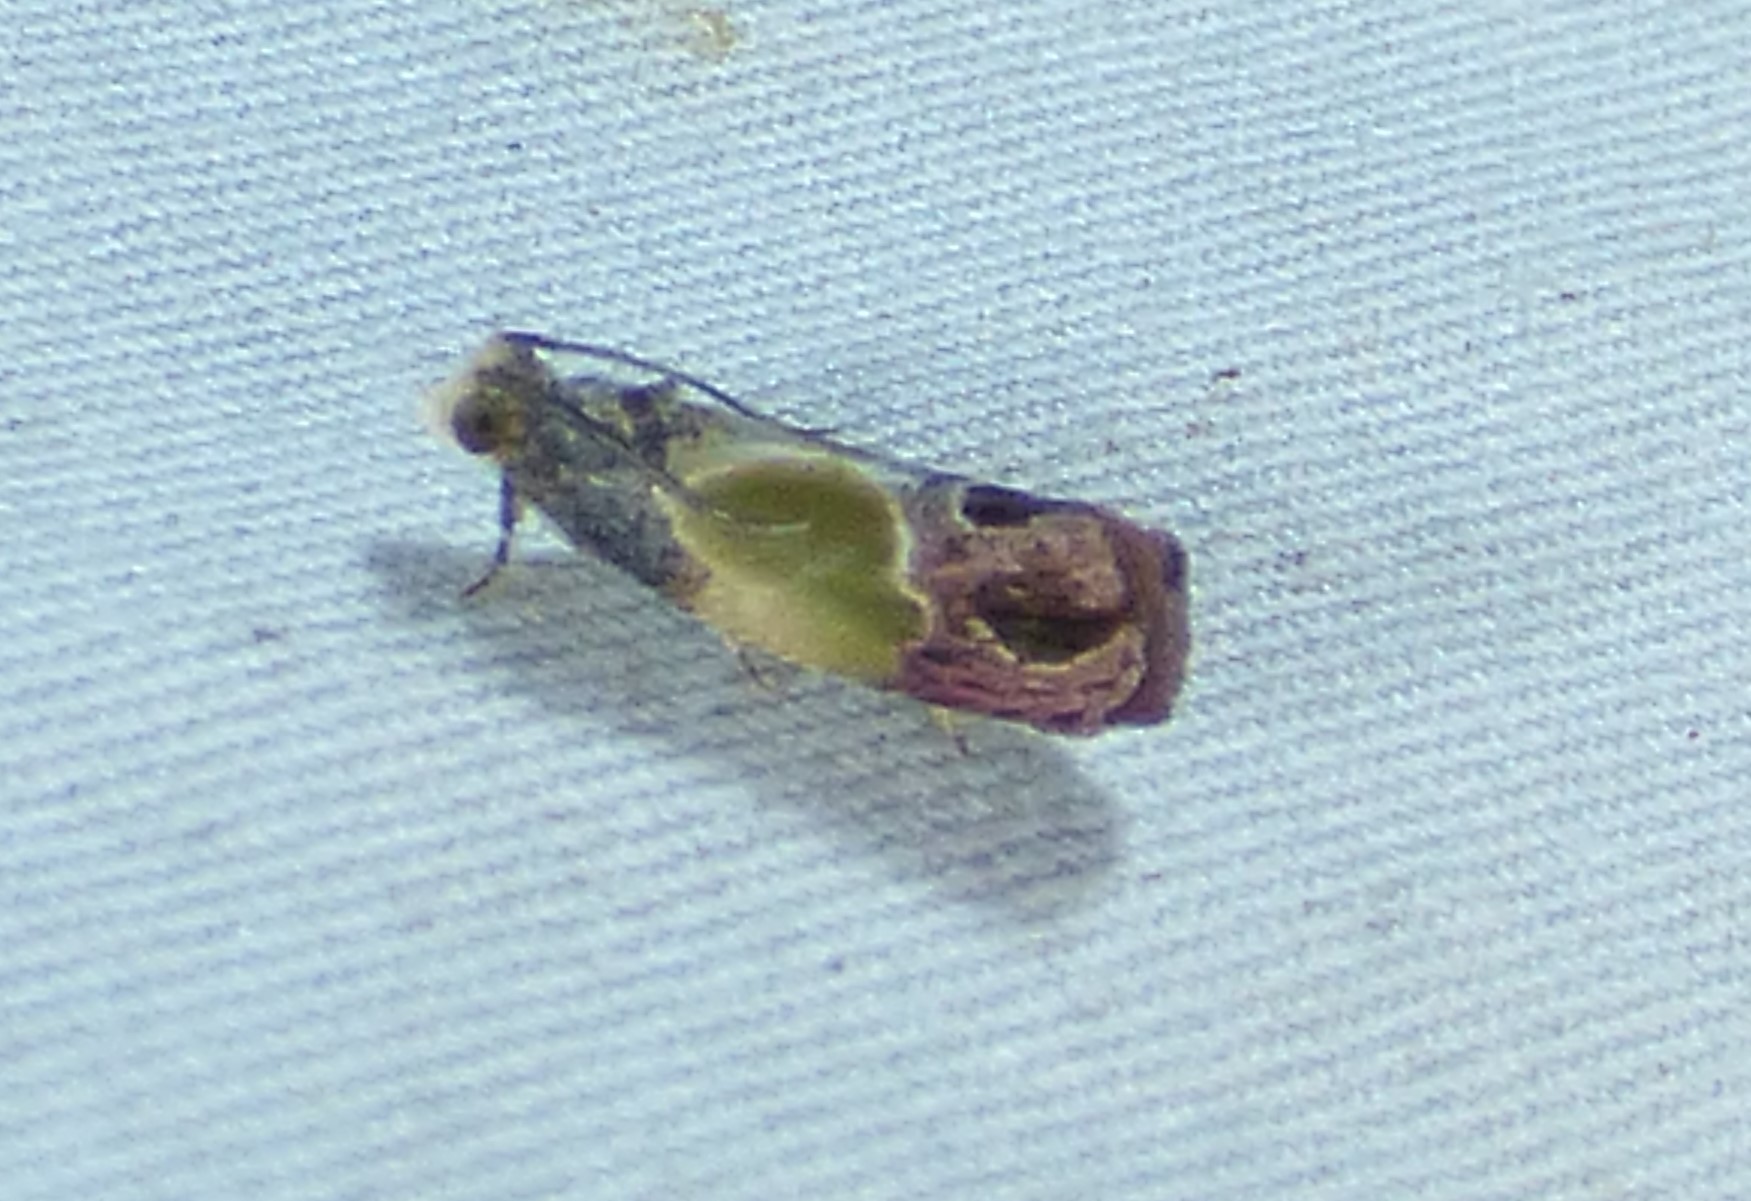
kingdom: Animalia
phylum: Arthropoda
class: Insecta
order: Lepidoptera
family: Tortricidae
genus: Eumarozia
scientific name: Eumarozia malachitana
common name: Sculptured moth
